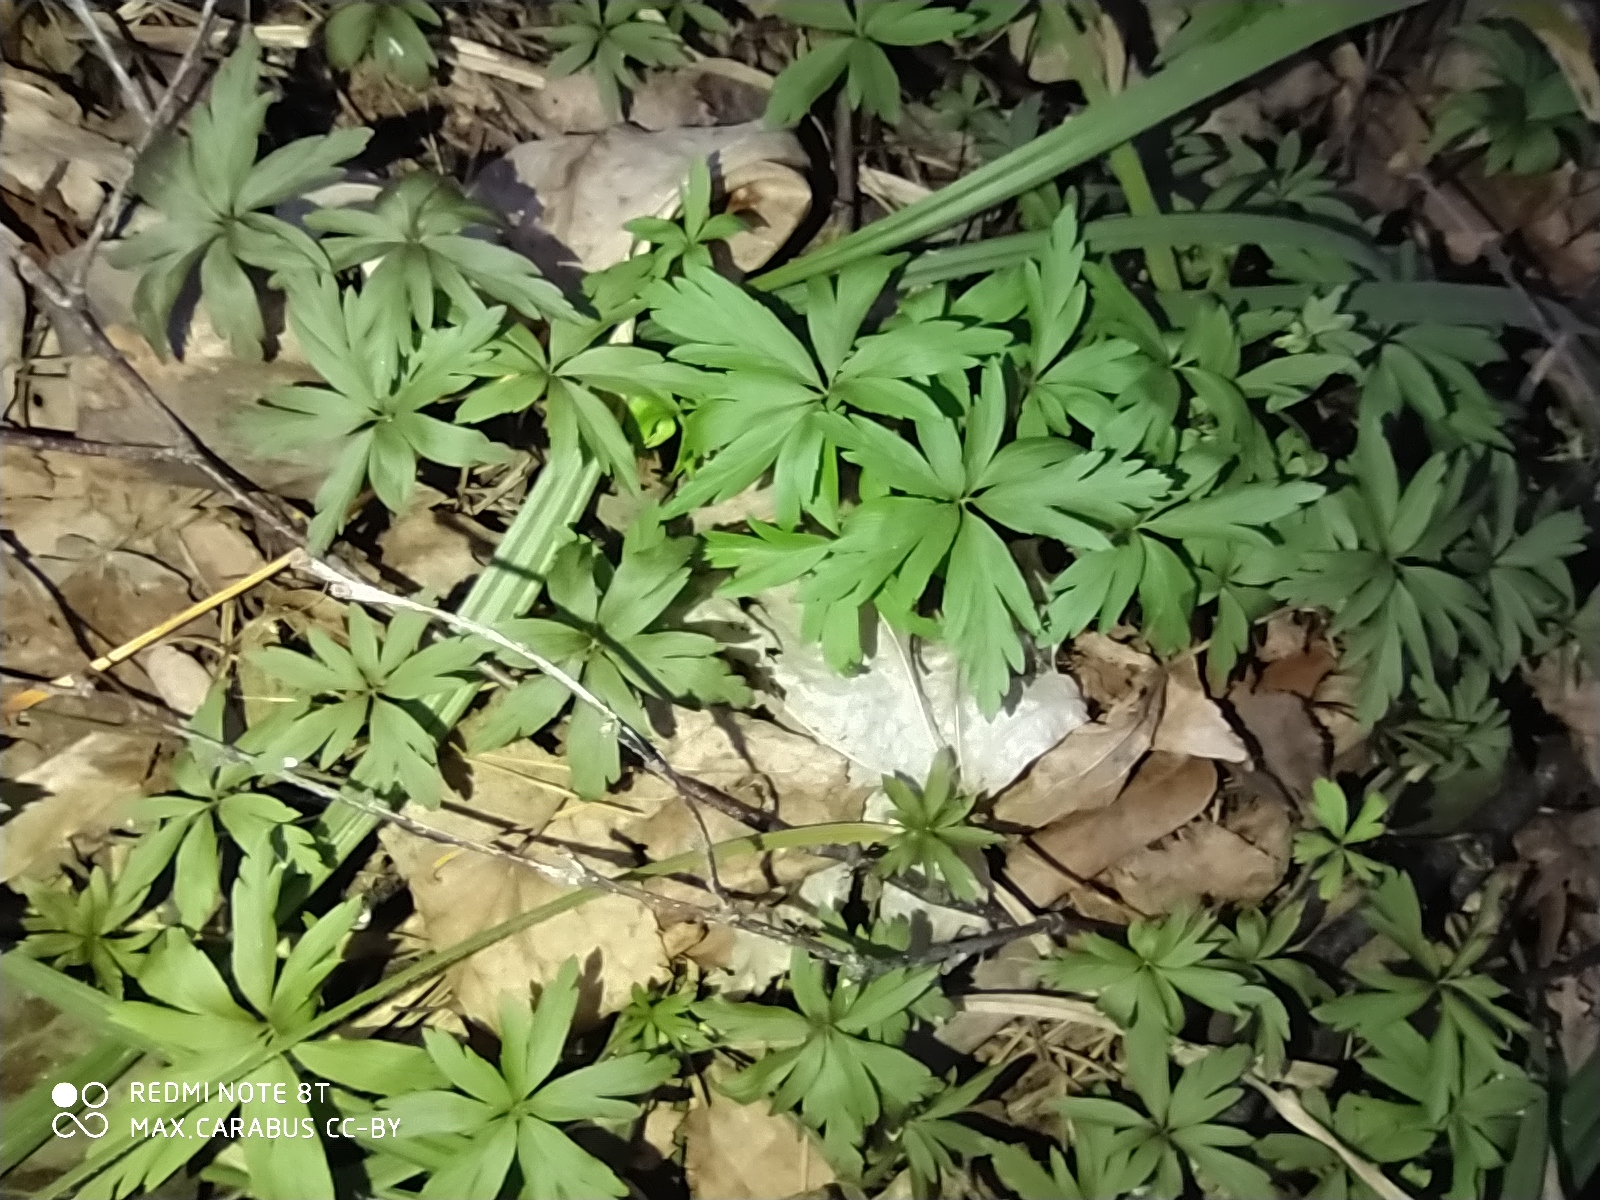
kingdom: Plantae
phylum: Tracheophyta
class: Magnoliopsida
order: Ranunculales
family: Ranunculaceae
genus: Anemone
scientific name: Anemone ranunculoides
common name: Yellow anemone
